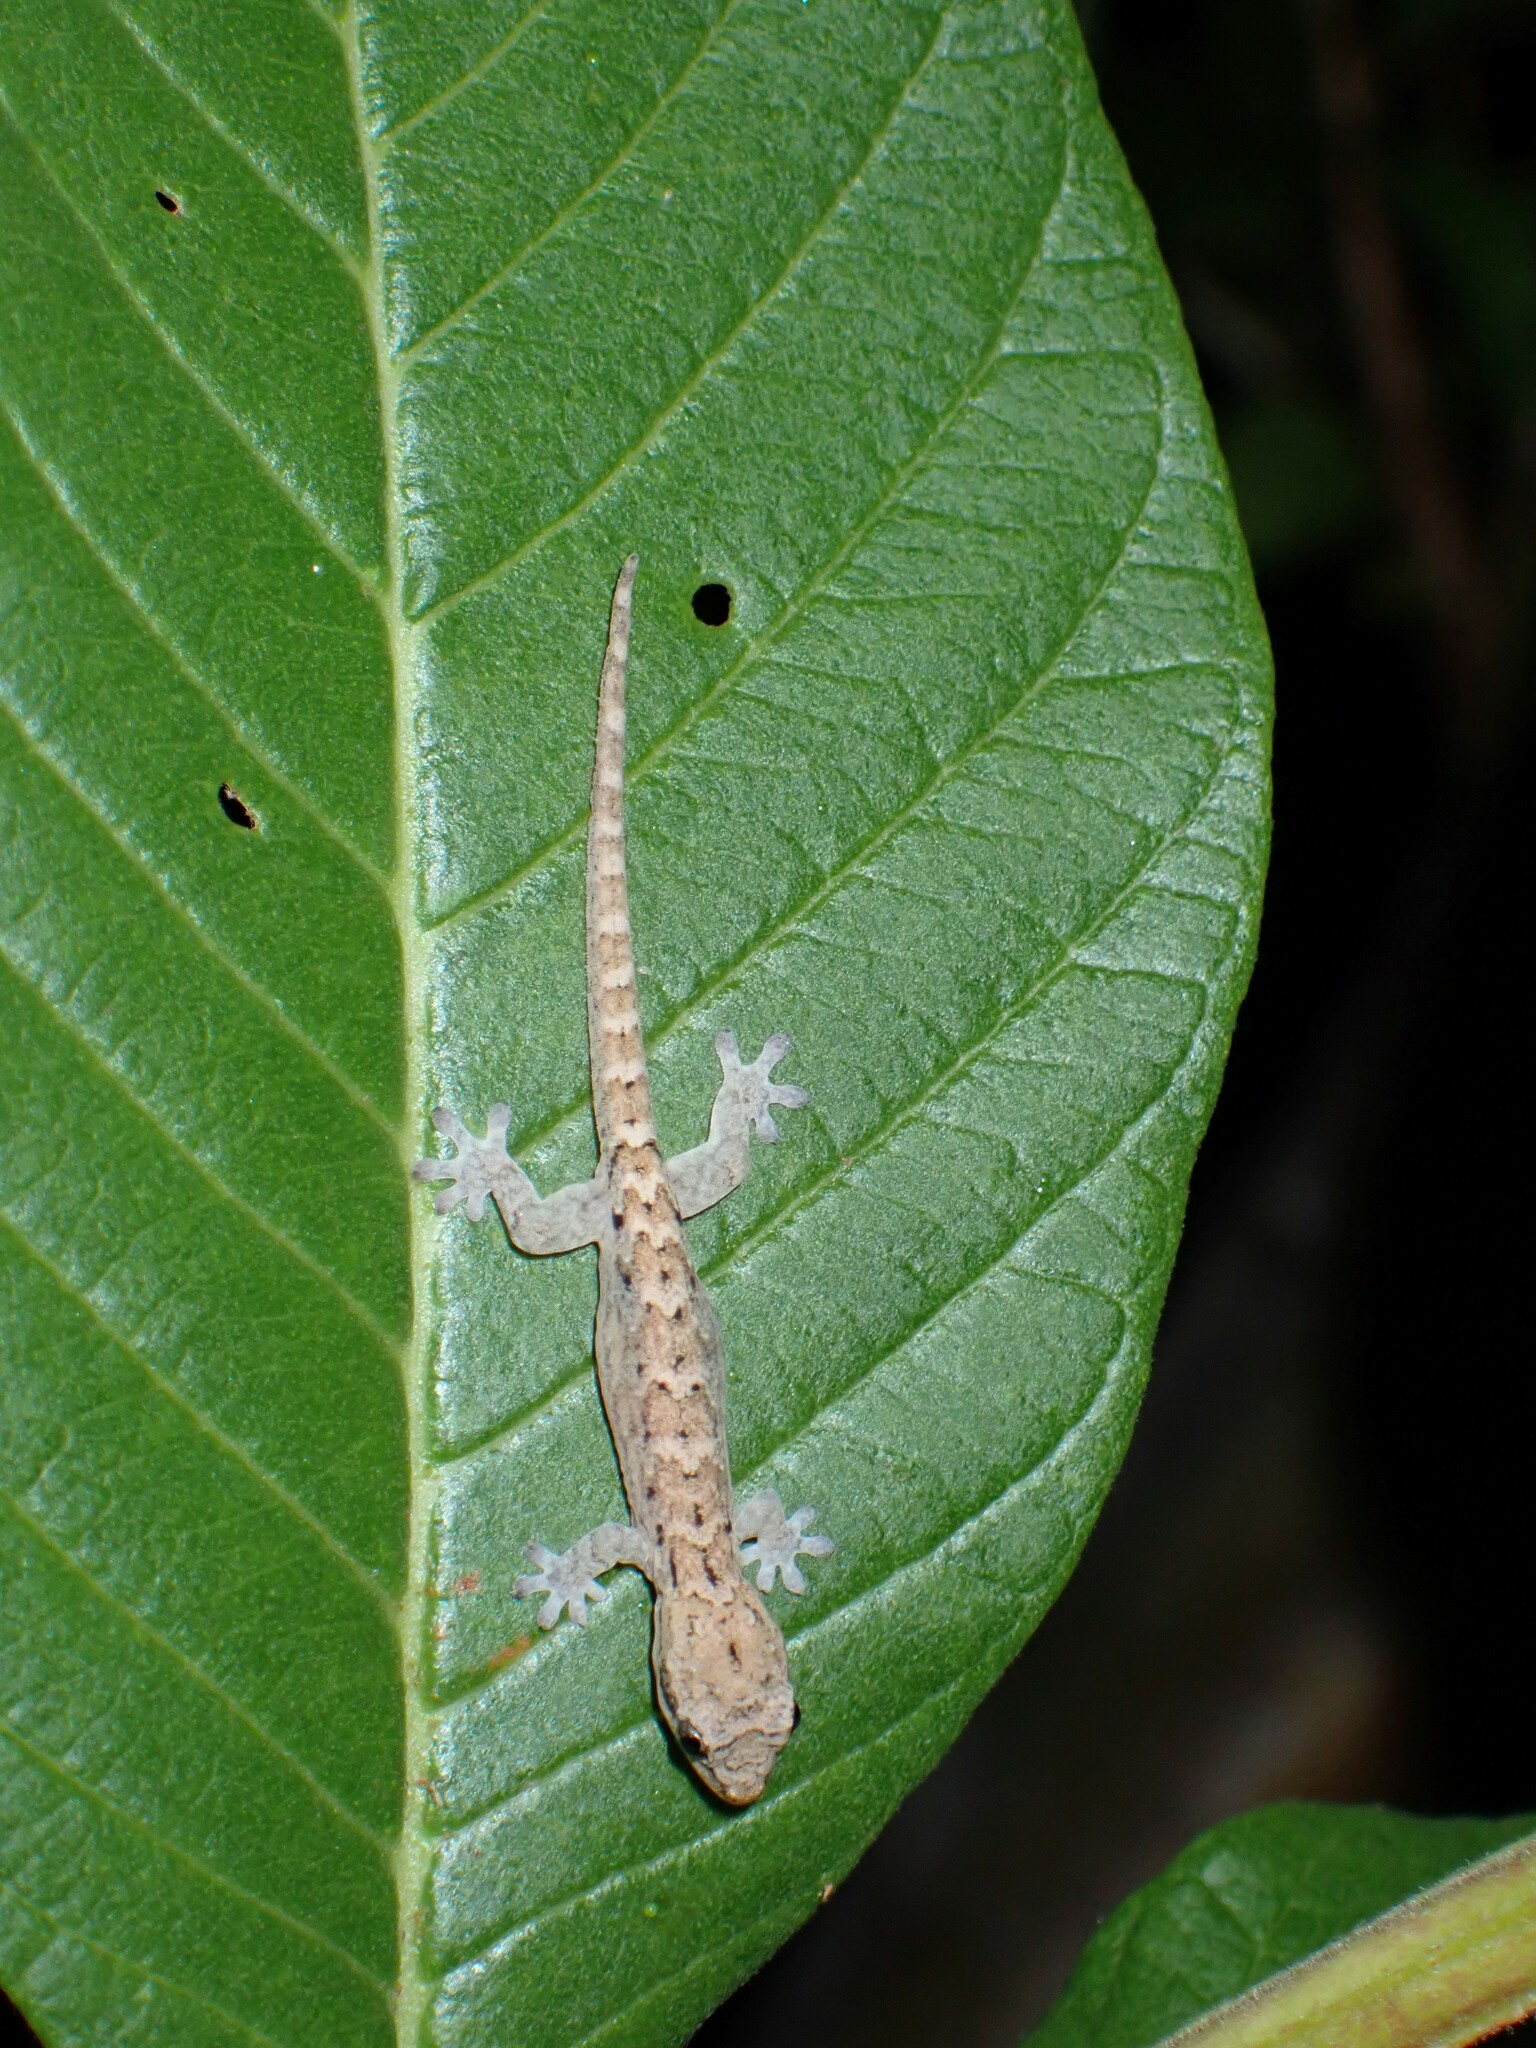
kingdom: Animalia
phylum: Chordata
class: Squamata
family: Gekkonidae
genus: Lepidodactylus
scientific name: Lepidodactylus lugubris
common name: Mourning gecko
